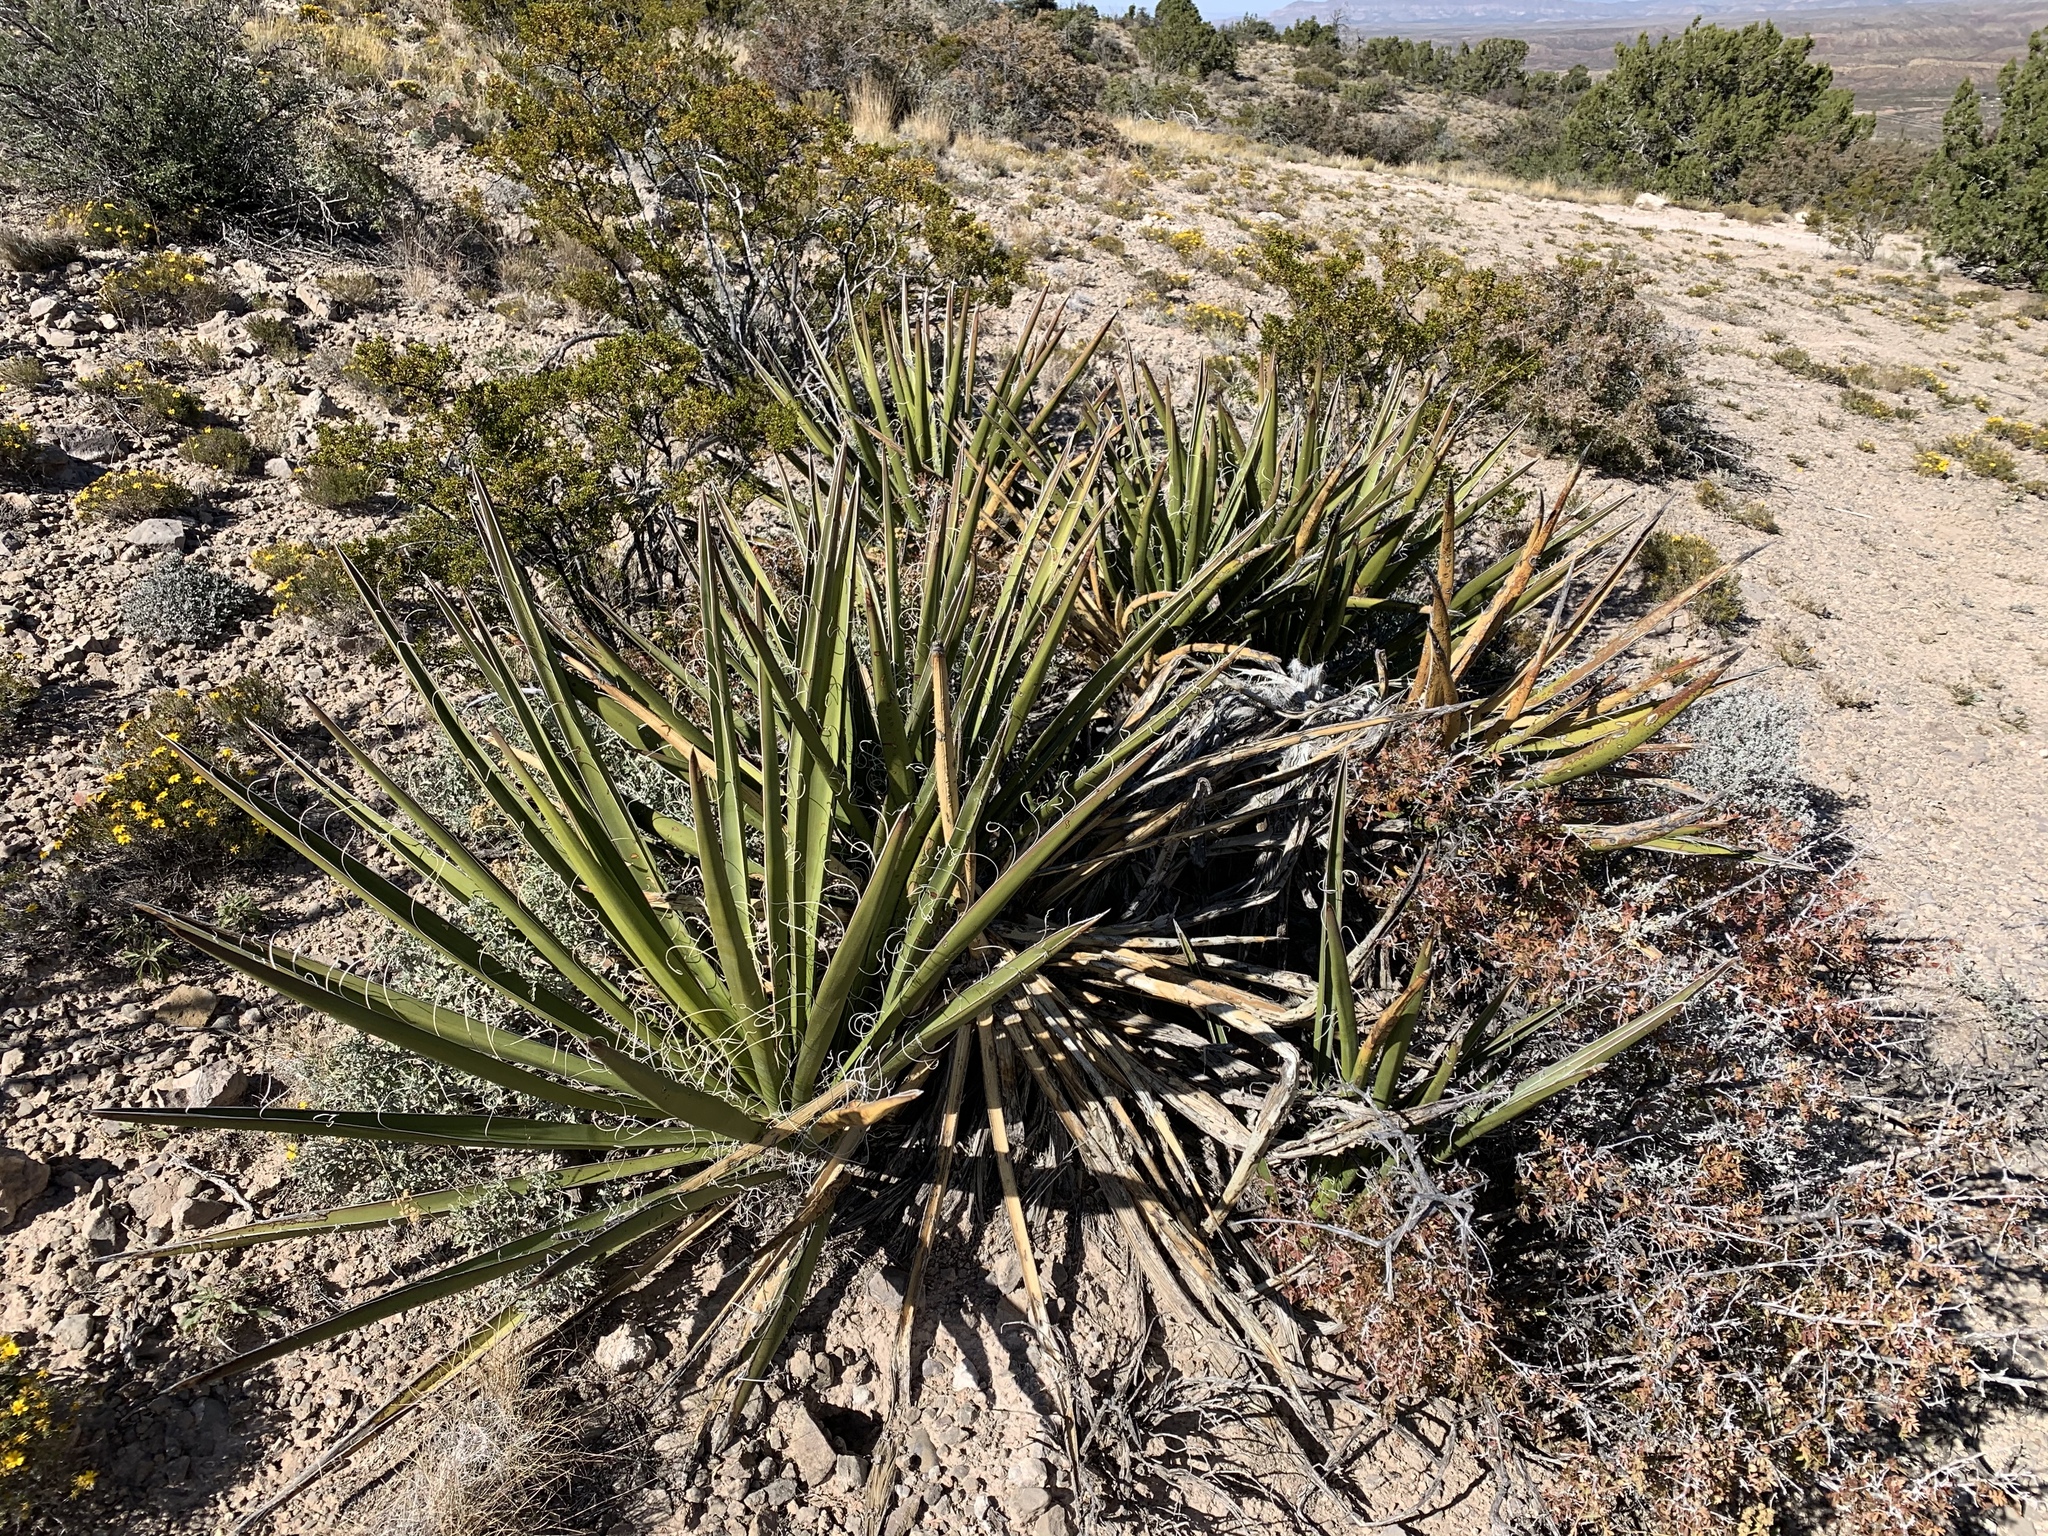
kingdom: Plantae
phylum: Tracheophyta
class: Liliopsida
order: Asparagales
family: Asparagaceae
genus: Yucca
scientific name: Yucca baccata
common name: Banana yucca
